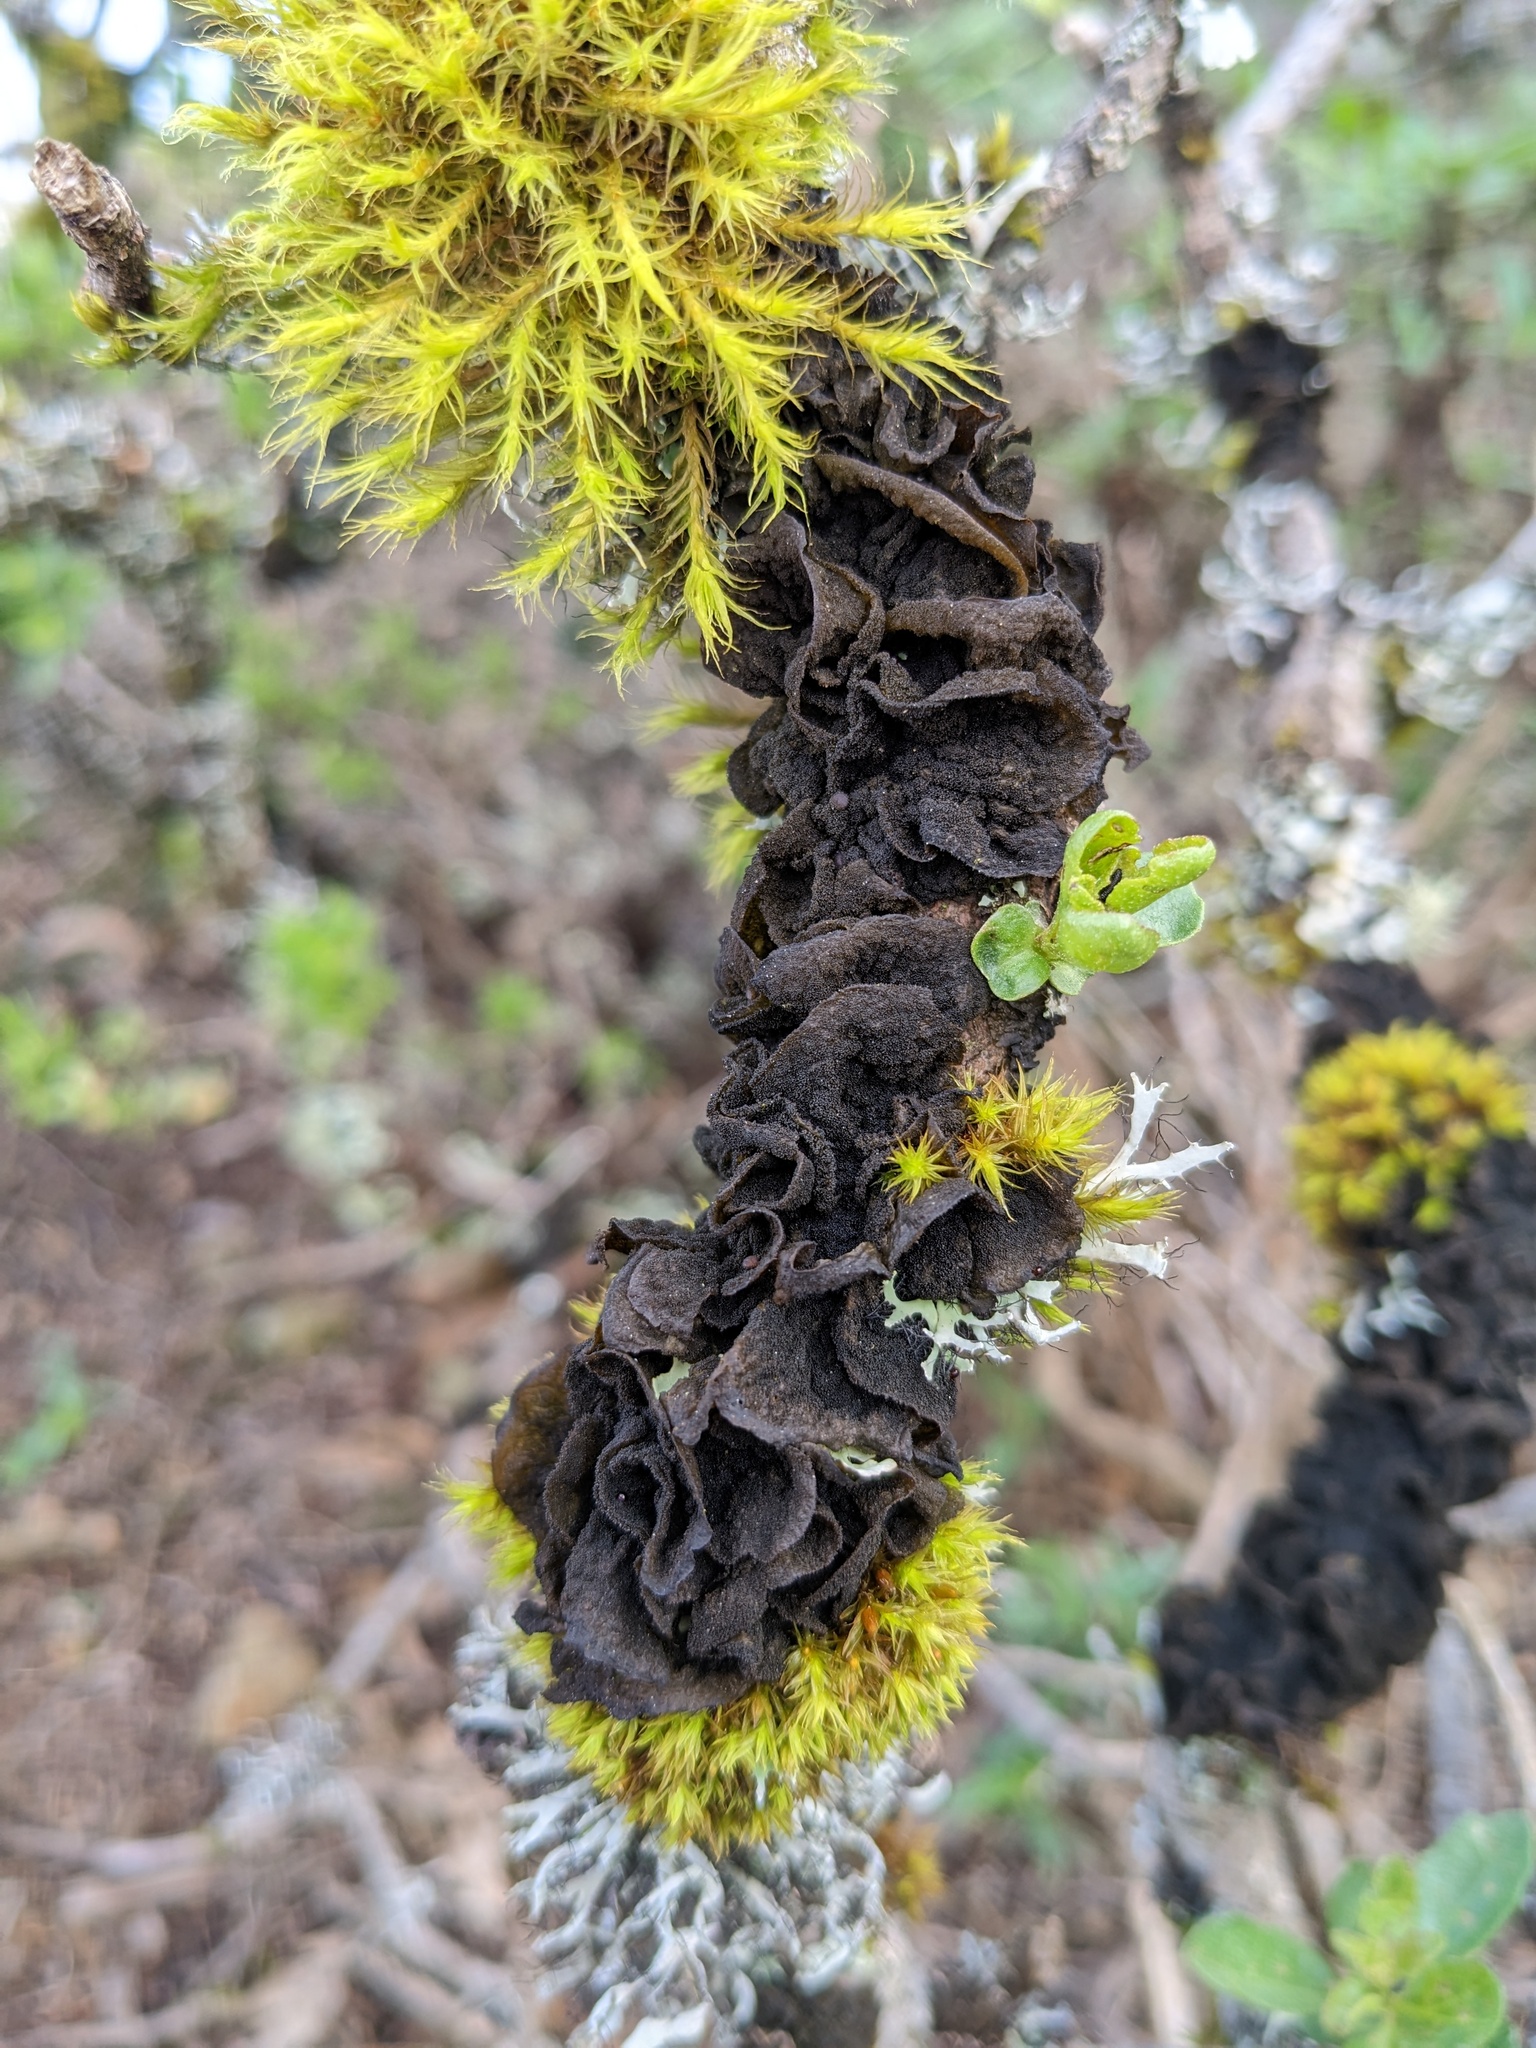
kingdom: Fungi
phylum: Ascomycota
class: Lecanoromycetes
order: Peltigerales
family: Collemataceae
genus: Collema
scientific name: Collema furfuraceum
